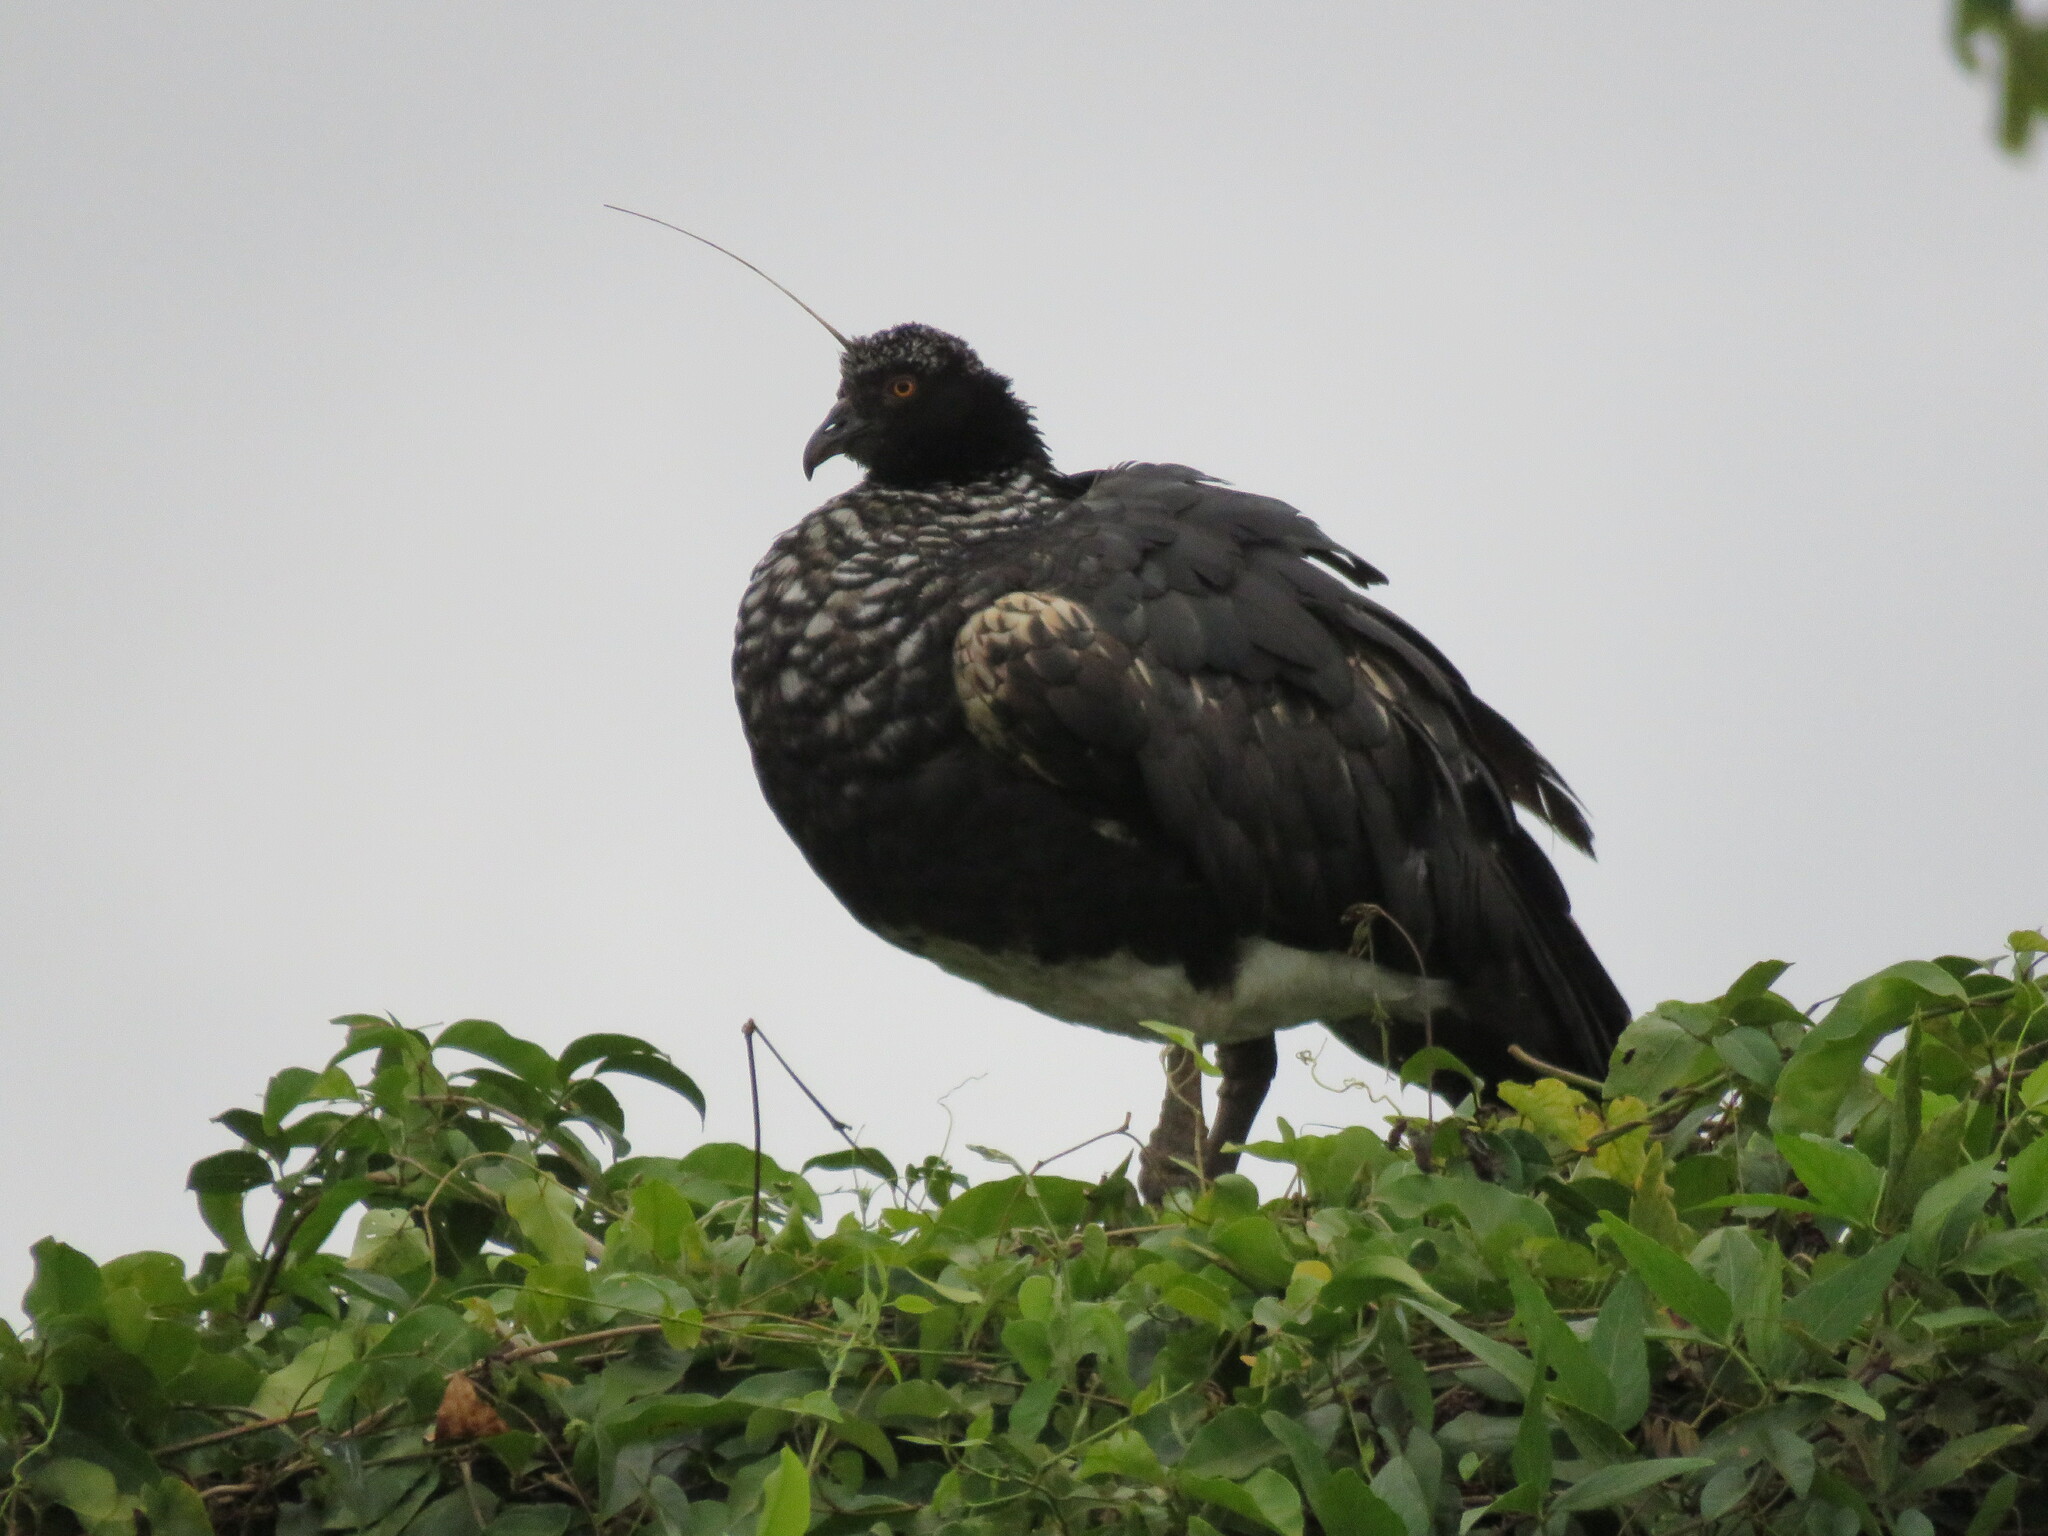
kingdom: Animalia
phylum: Chordata
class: Aves
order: Anseriformes
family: Anhimidae
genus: Anhima
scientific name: Anhima cornuta
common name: Horned screamer
